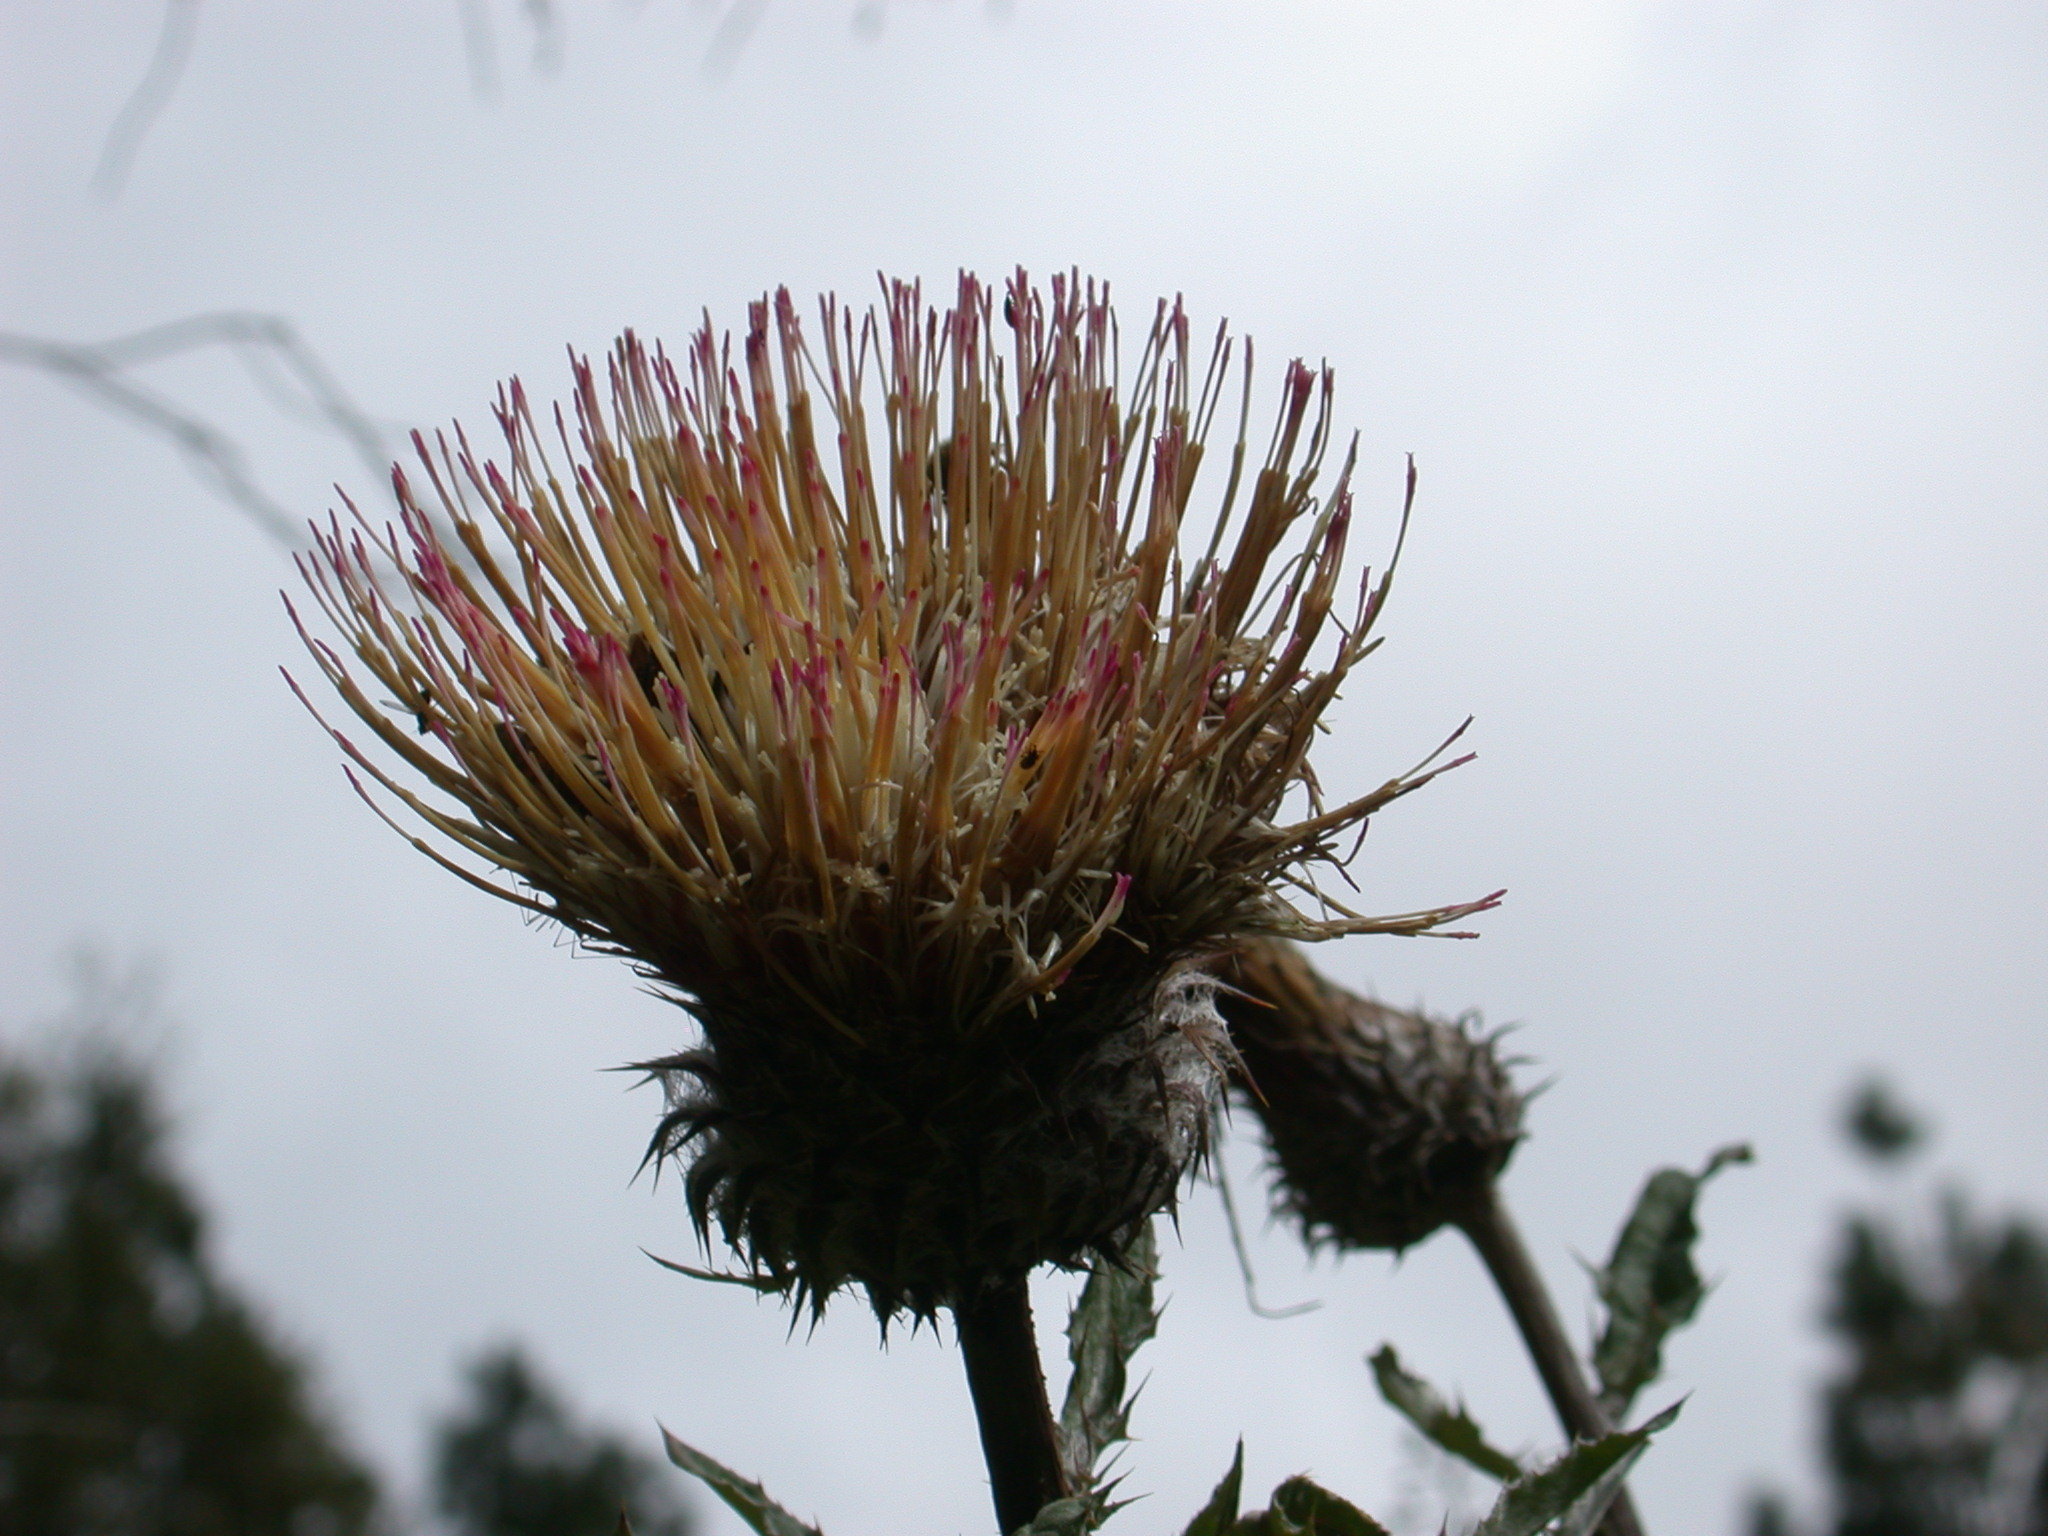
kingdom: Plantae
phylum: Tracheophyta
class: Magnoliopsida
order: Asterales
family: Asteraceae
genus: Cirsium
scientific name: Cirsium subcoriaceum
